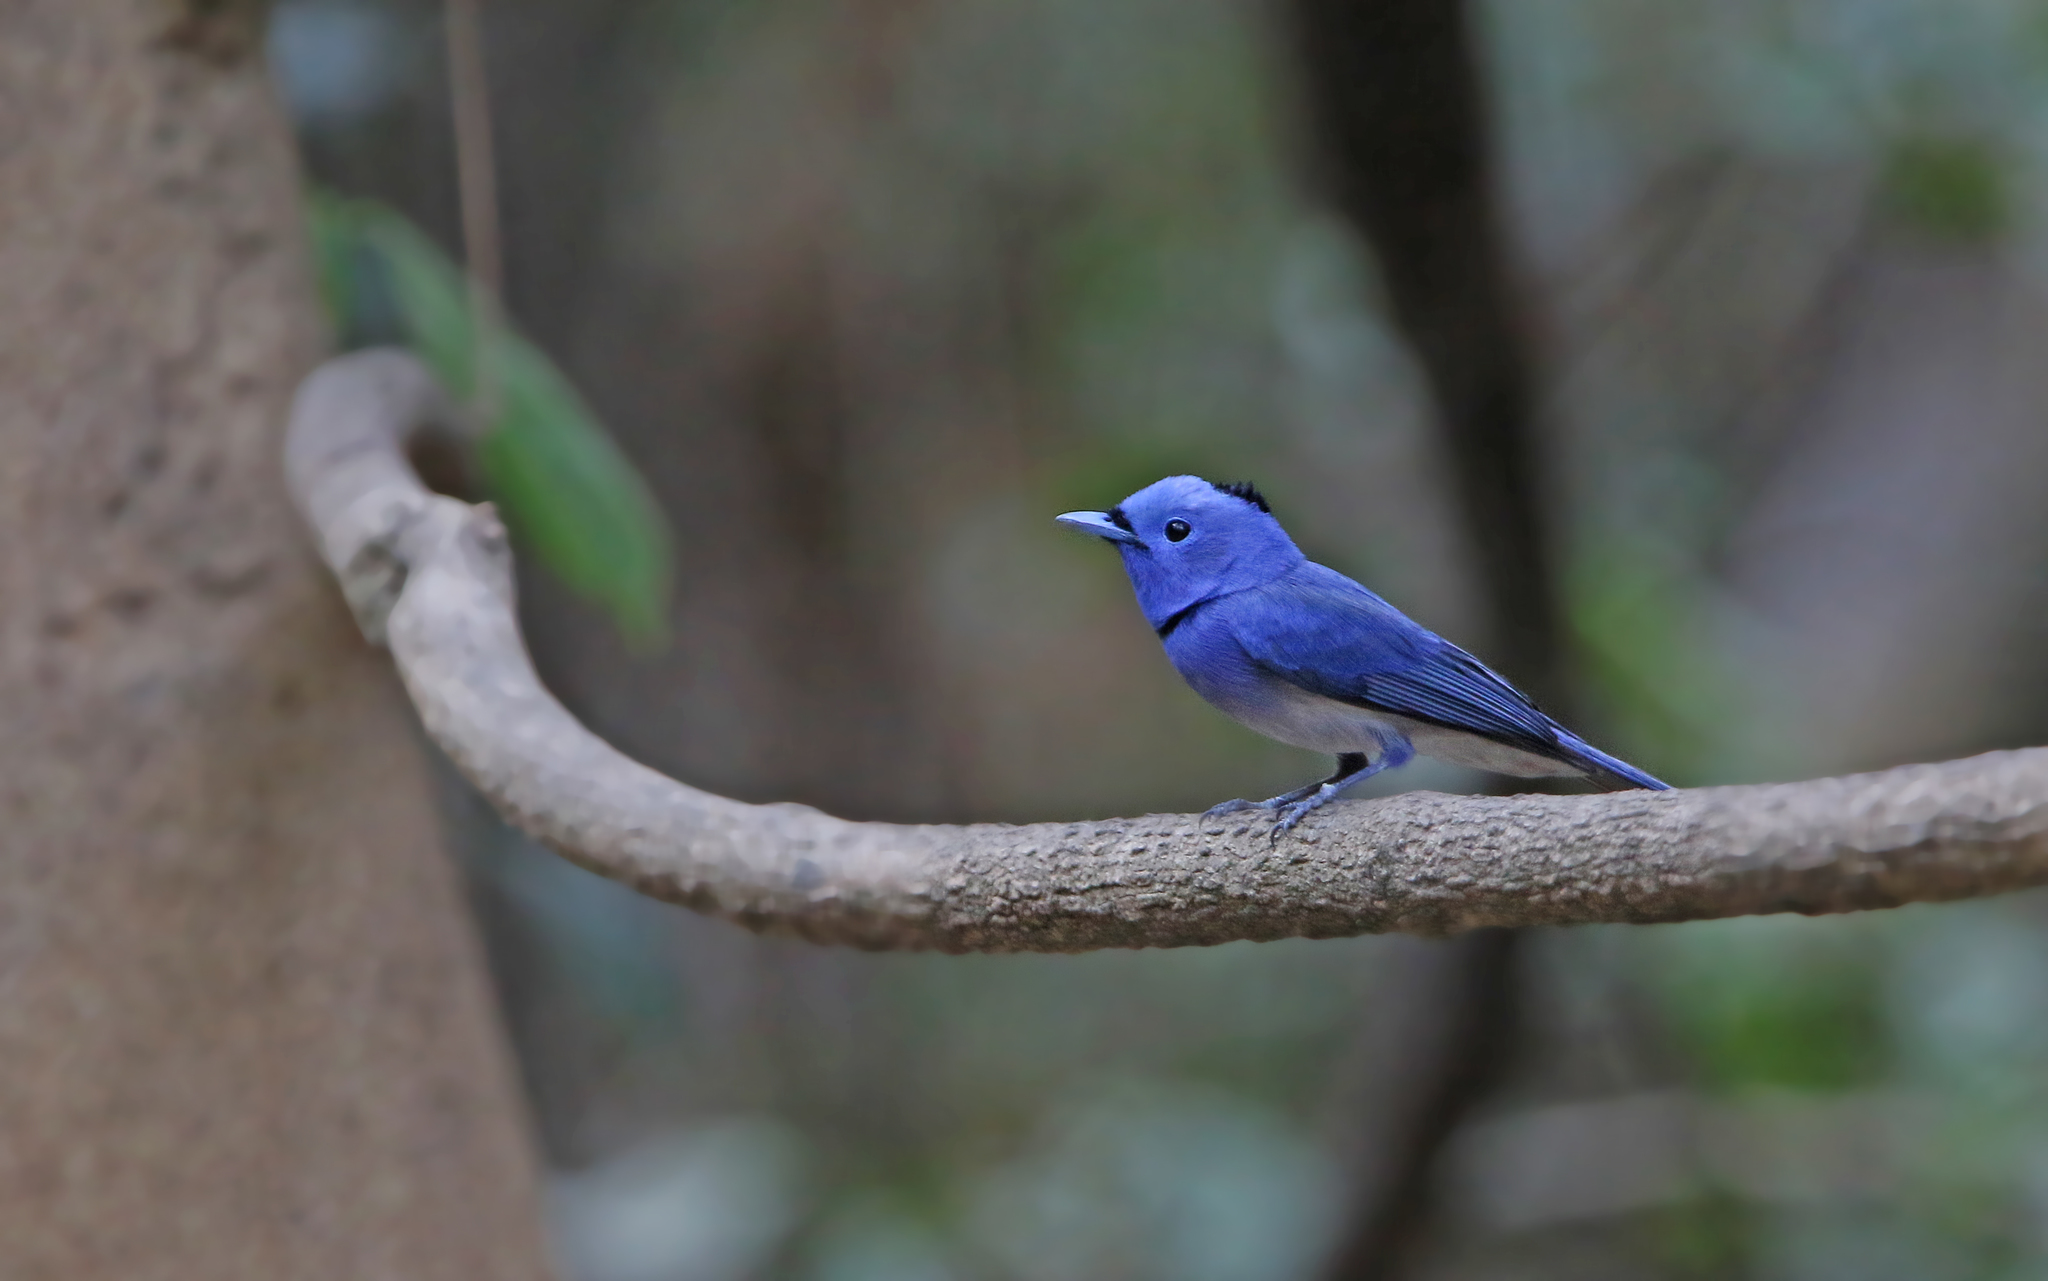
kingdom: Animalia
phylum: Chordata
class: Aves
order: Passeriformes
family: Monarchidae
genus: Hypothymis
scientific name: Hypothymis azurea
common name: Black-naped monarch
